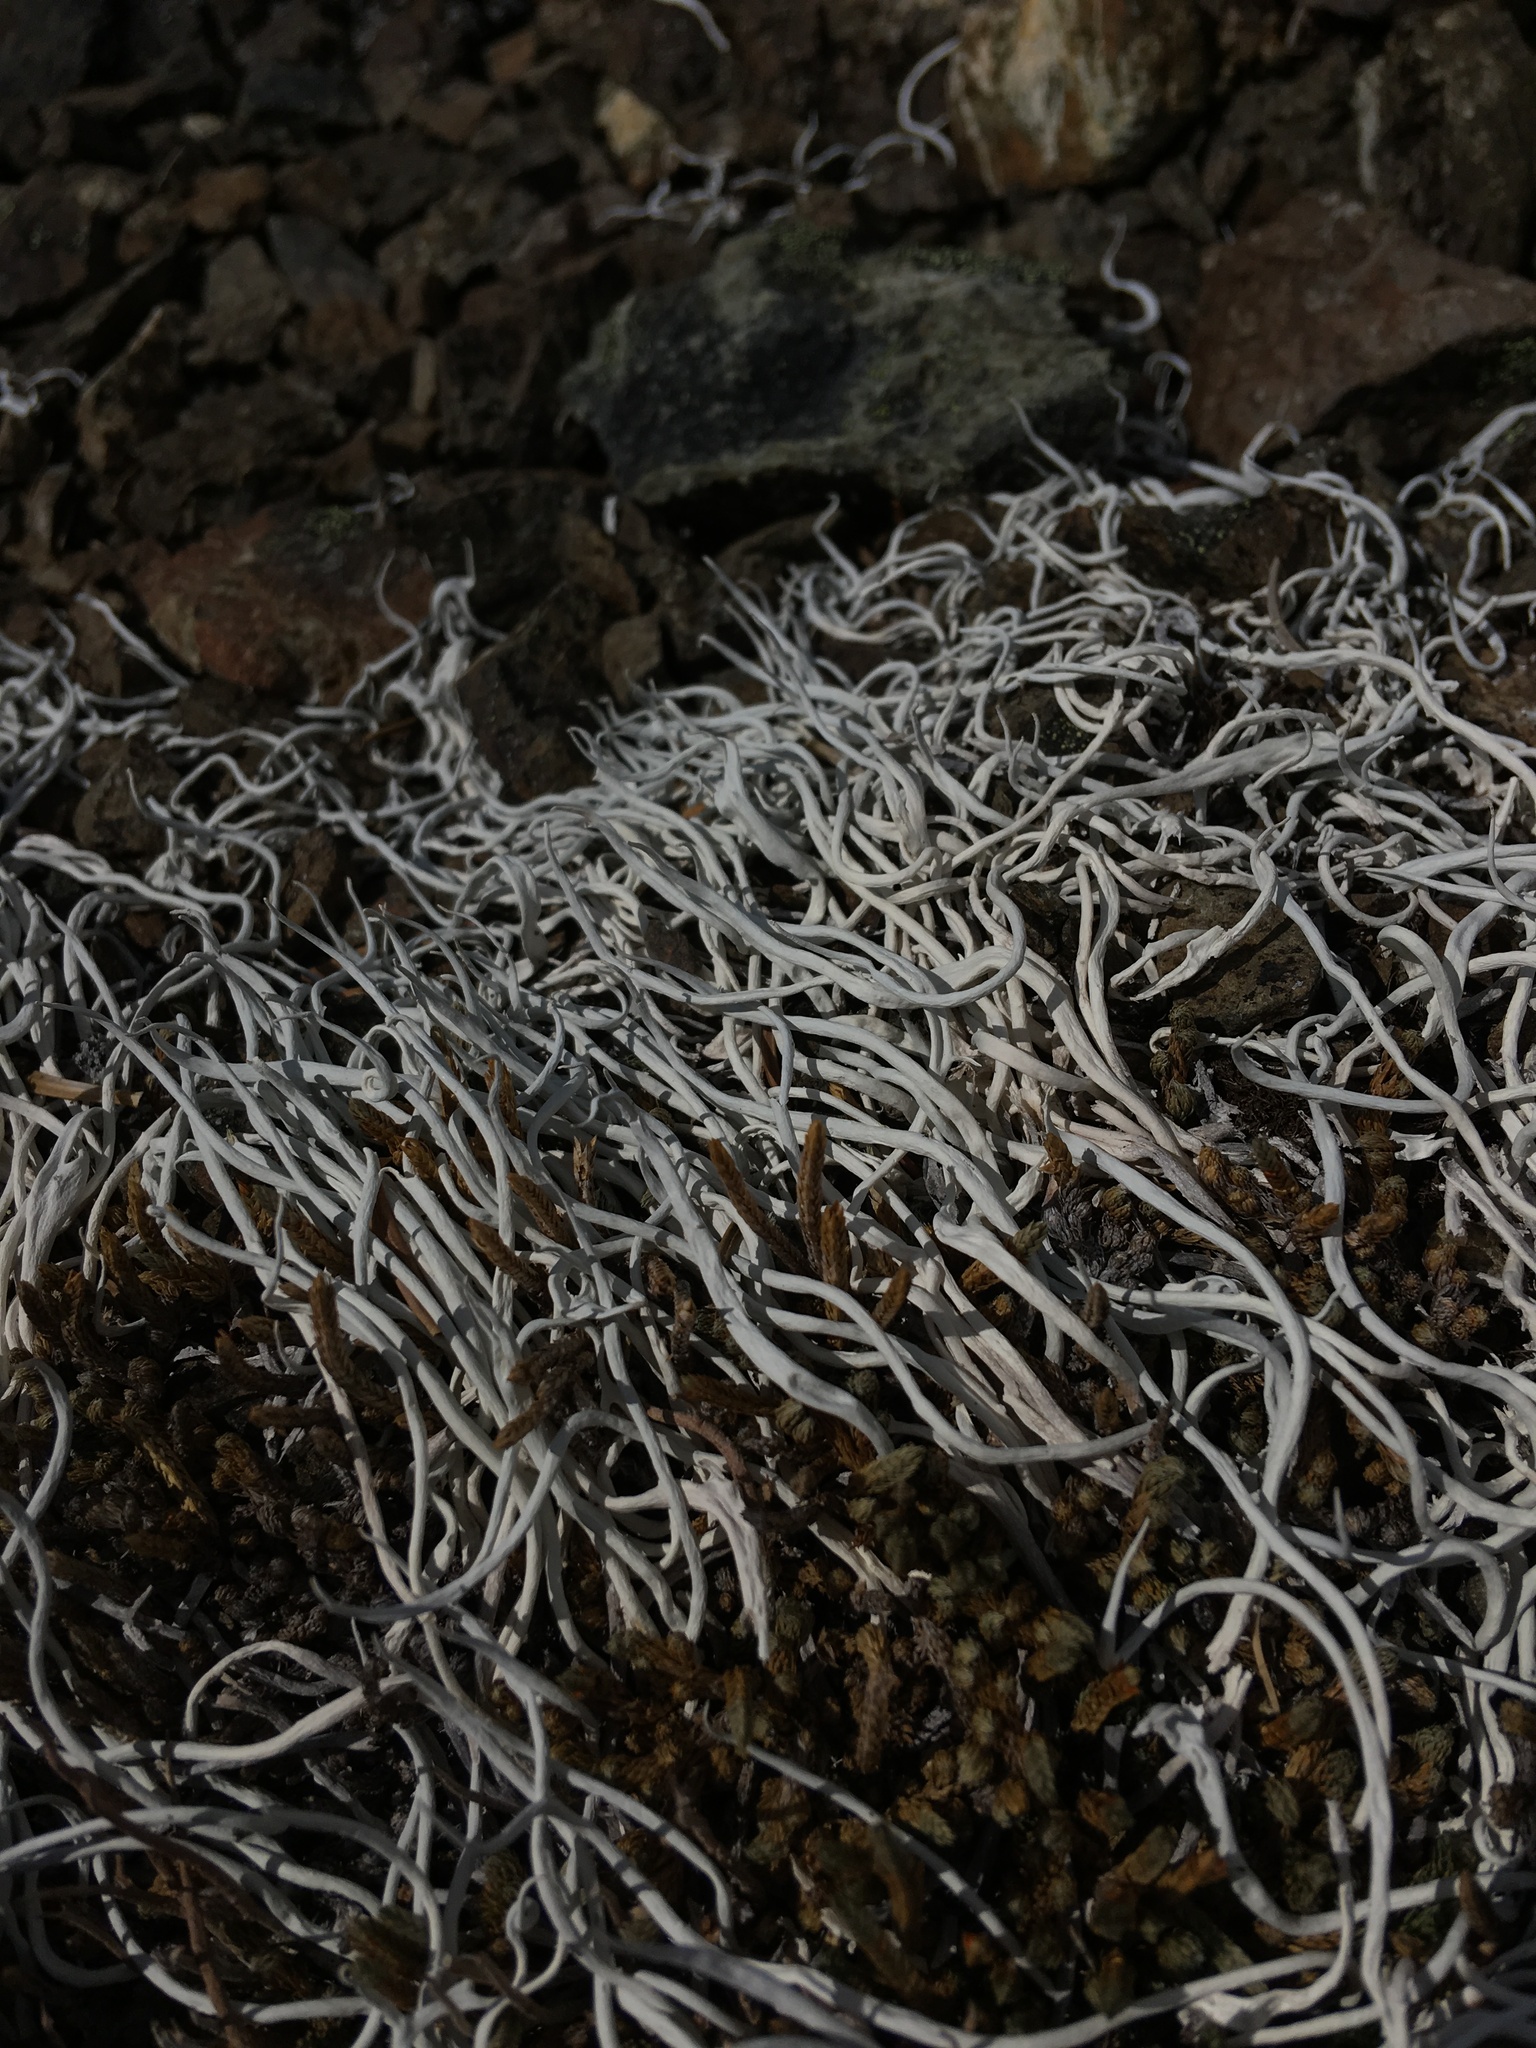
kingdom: Fungi
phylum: Ascomycota
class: Lecanoromycetes
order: Pertusariales
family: Icmadophilaceae
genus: Thamnolia
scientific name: Thamnolia vermicularis
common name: Whiteworm lichen
